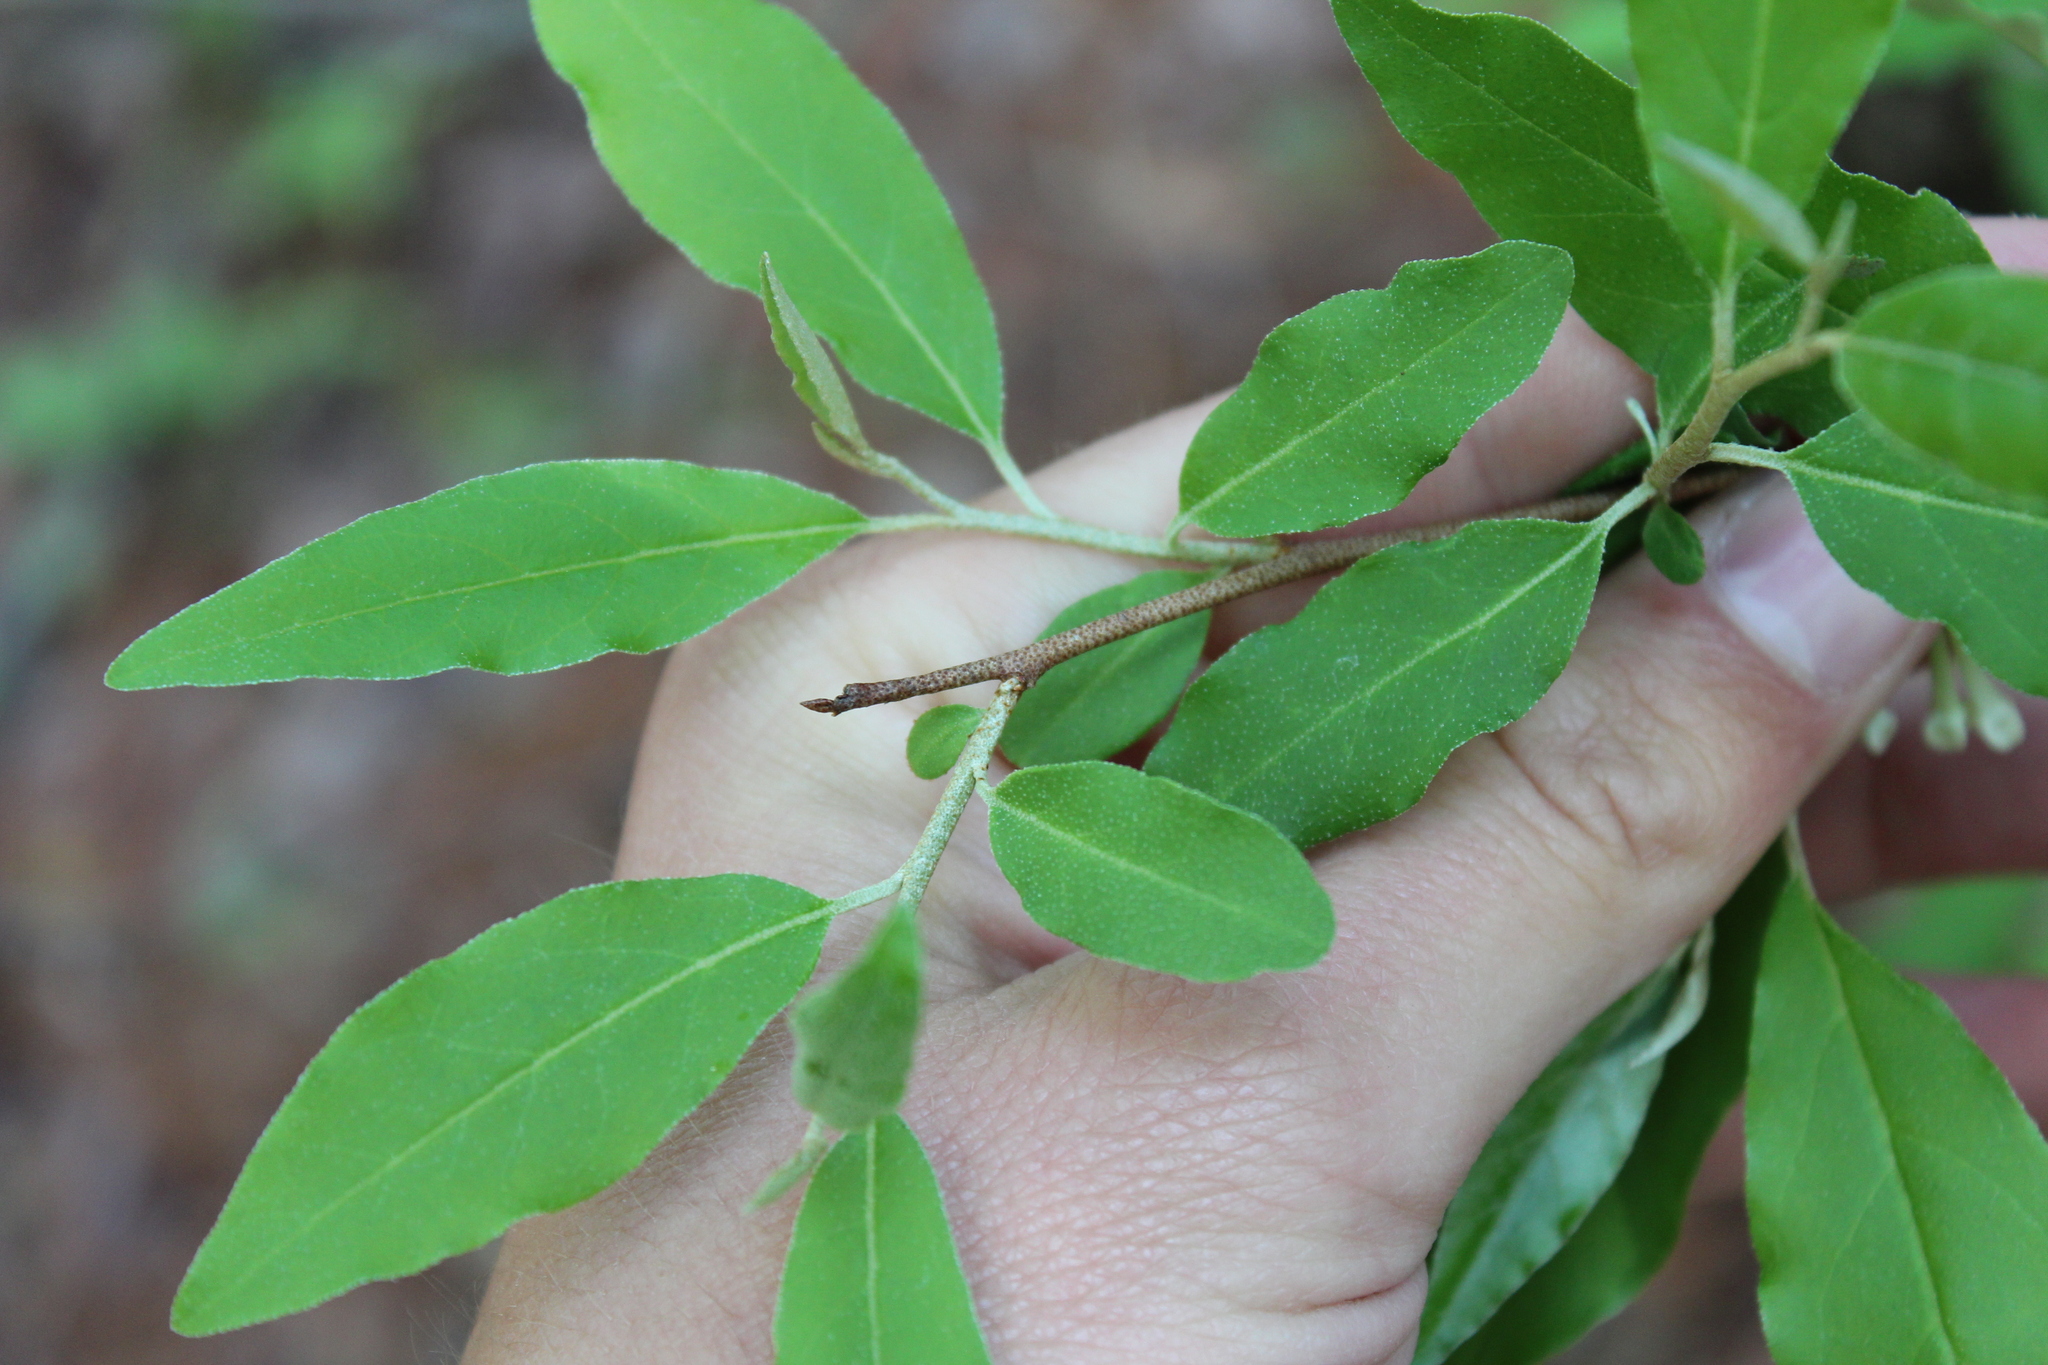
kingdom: Plantae
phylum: Tracheophyta
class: Magnoliopsida
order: Rosales
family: Elaeagnaceae
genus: Elaeagnus
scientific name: Elaeagnus umbellata
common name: Autumn olive
